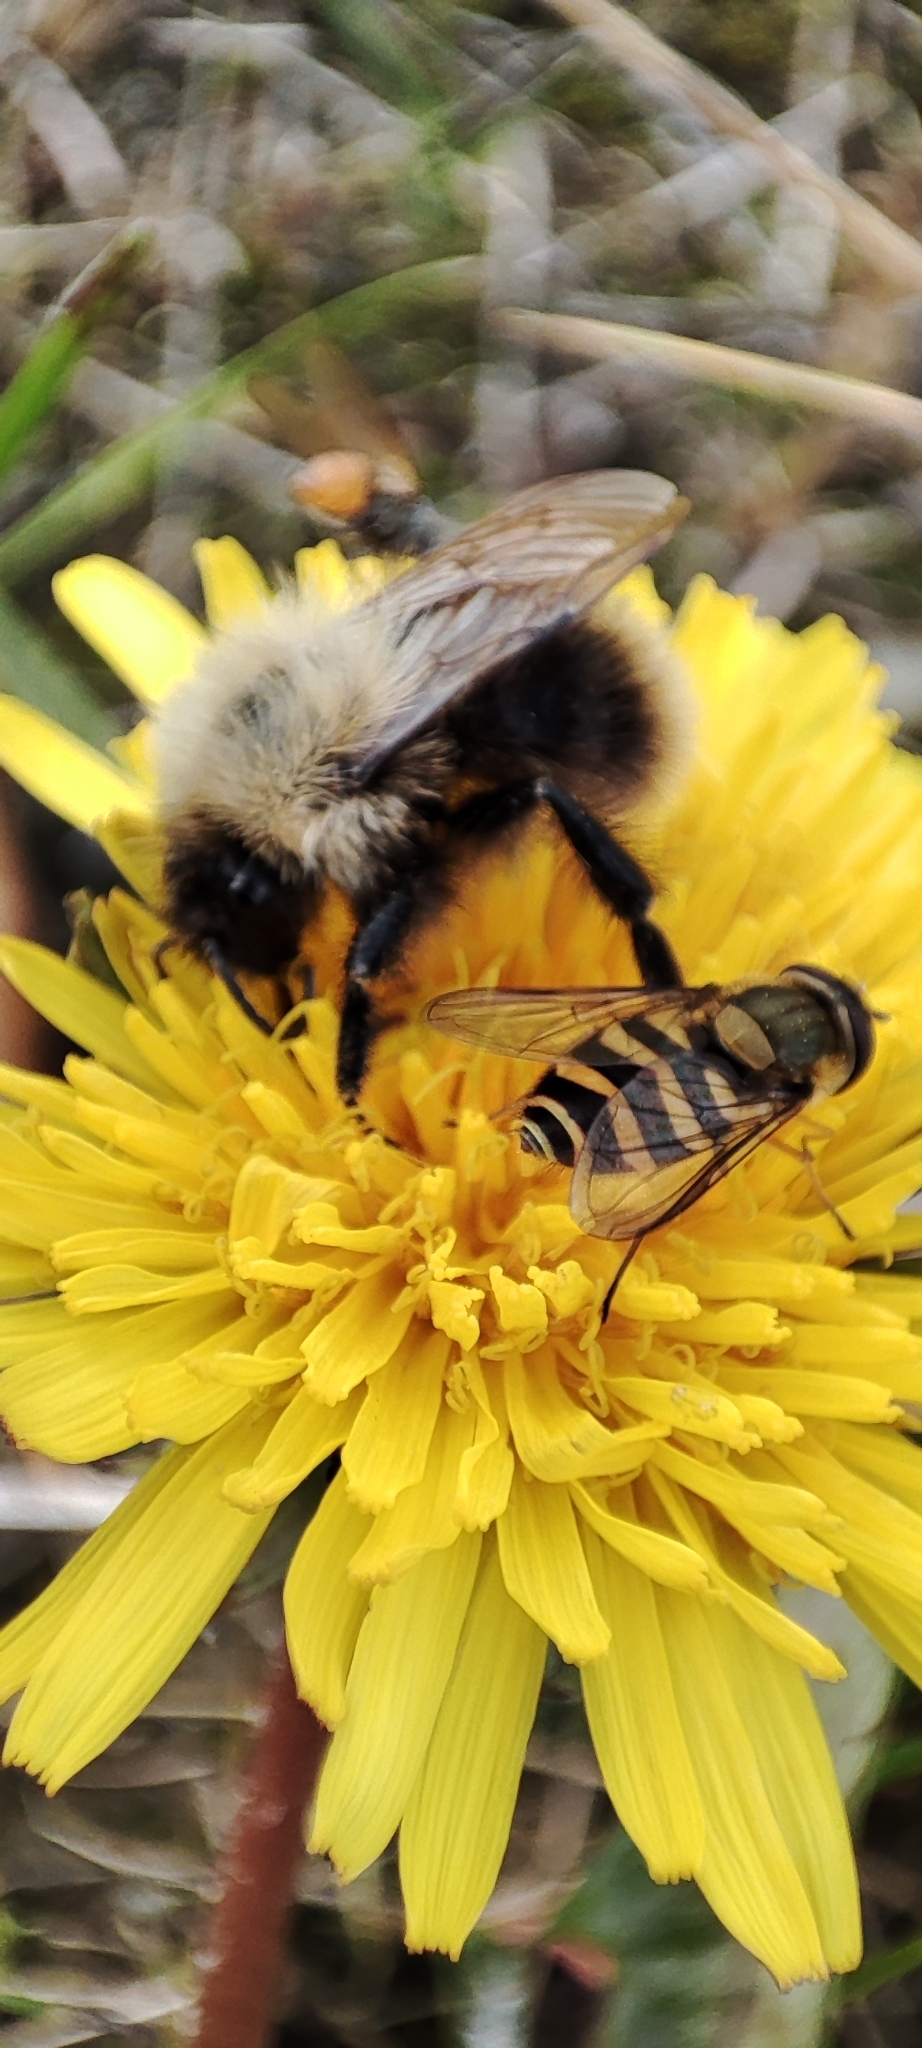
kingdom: Animalia
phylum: Arthropoda
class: Insecta
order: Hymenoptera
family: Apidae
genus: Bombus
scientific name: Bombus
